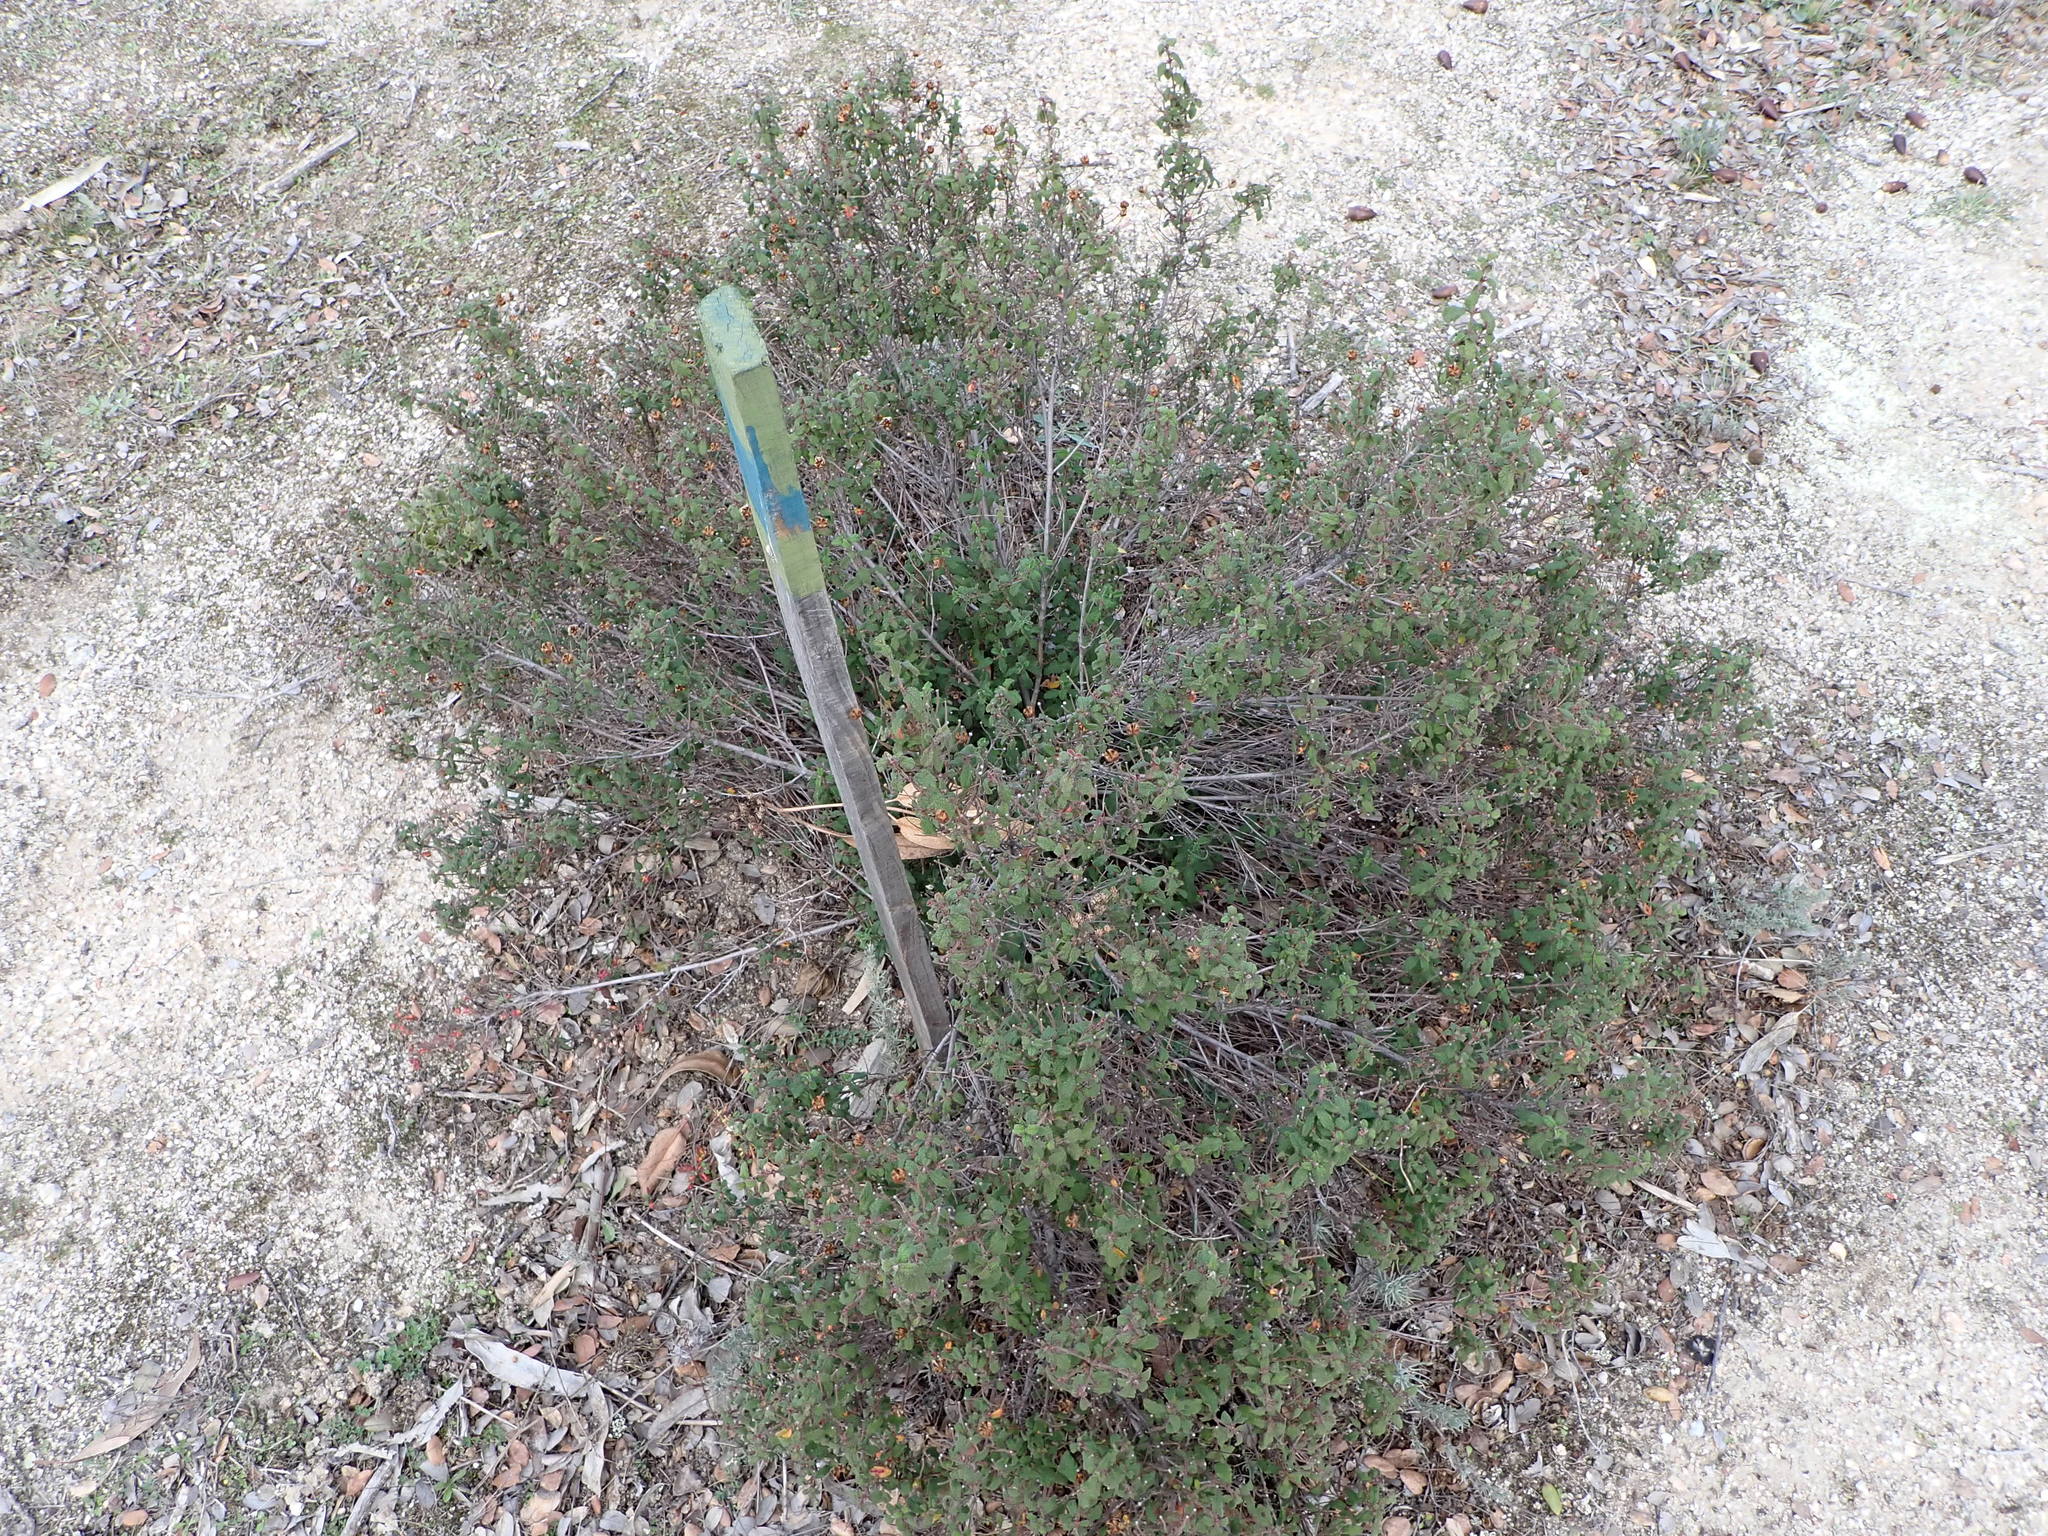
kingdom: Plantae
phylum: Tracheophyta
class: Magnoliopsida
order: Malvales
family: Cistaceae
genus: Cistus
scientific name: Cistus salviifolius
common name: Salvia cistus
